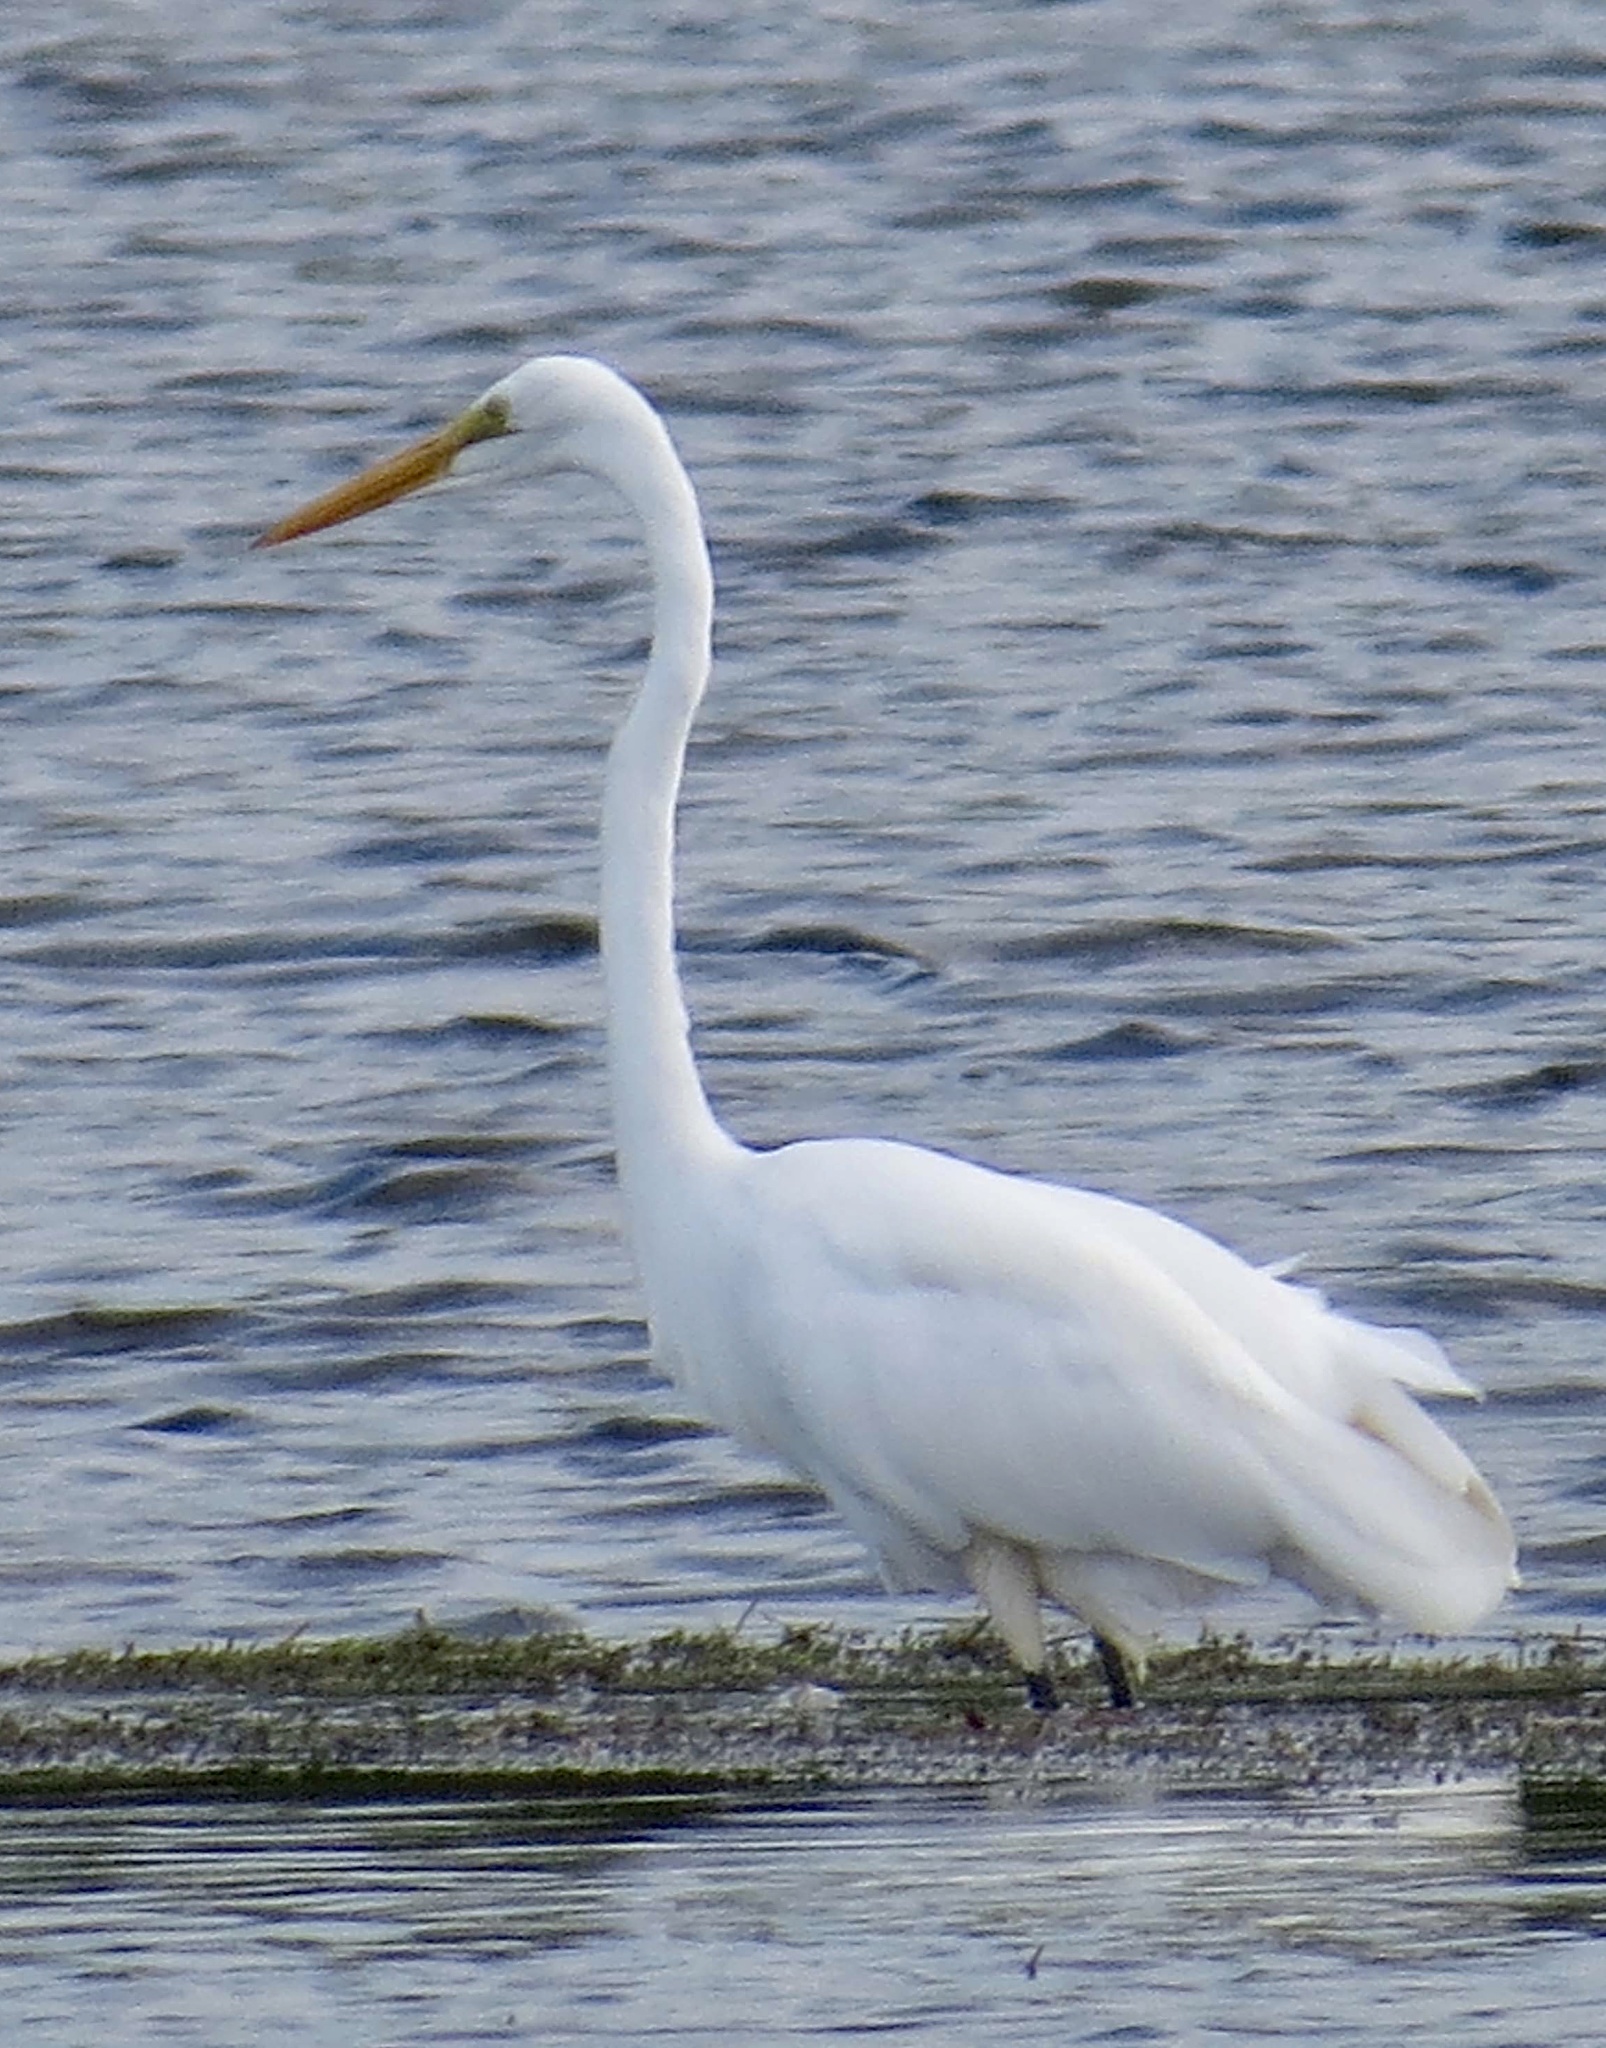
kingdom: Animalia
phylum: Chordata
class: Aves
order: Pelecaniformes
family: Ardeidae
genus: Ardea
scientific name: Ardea alba
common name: Great egret
